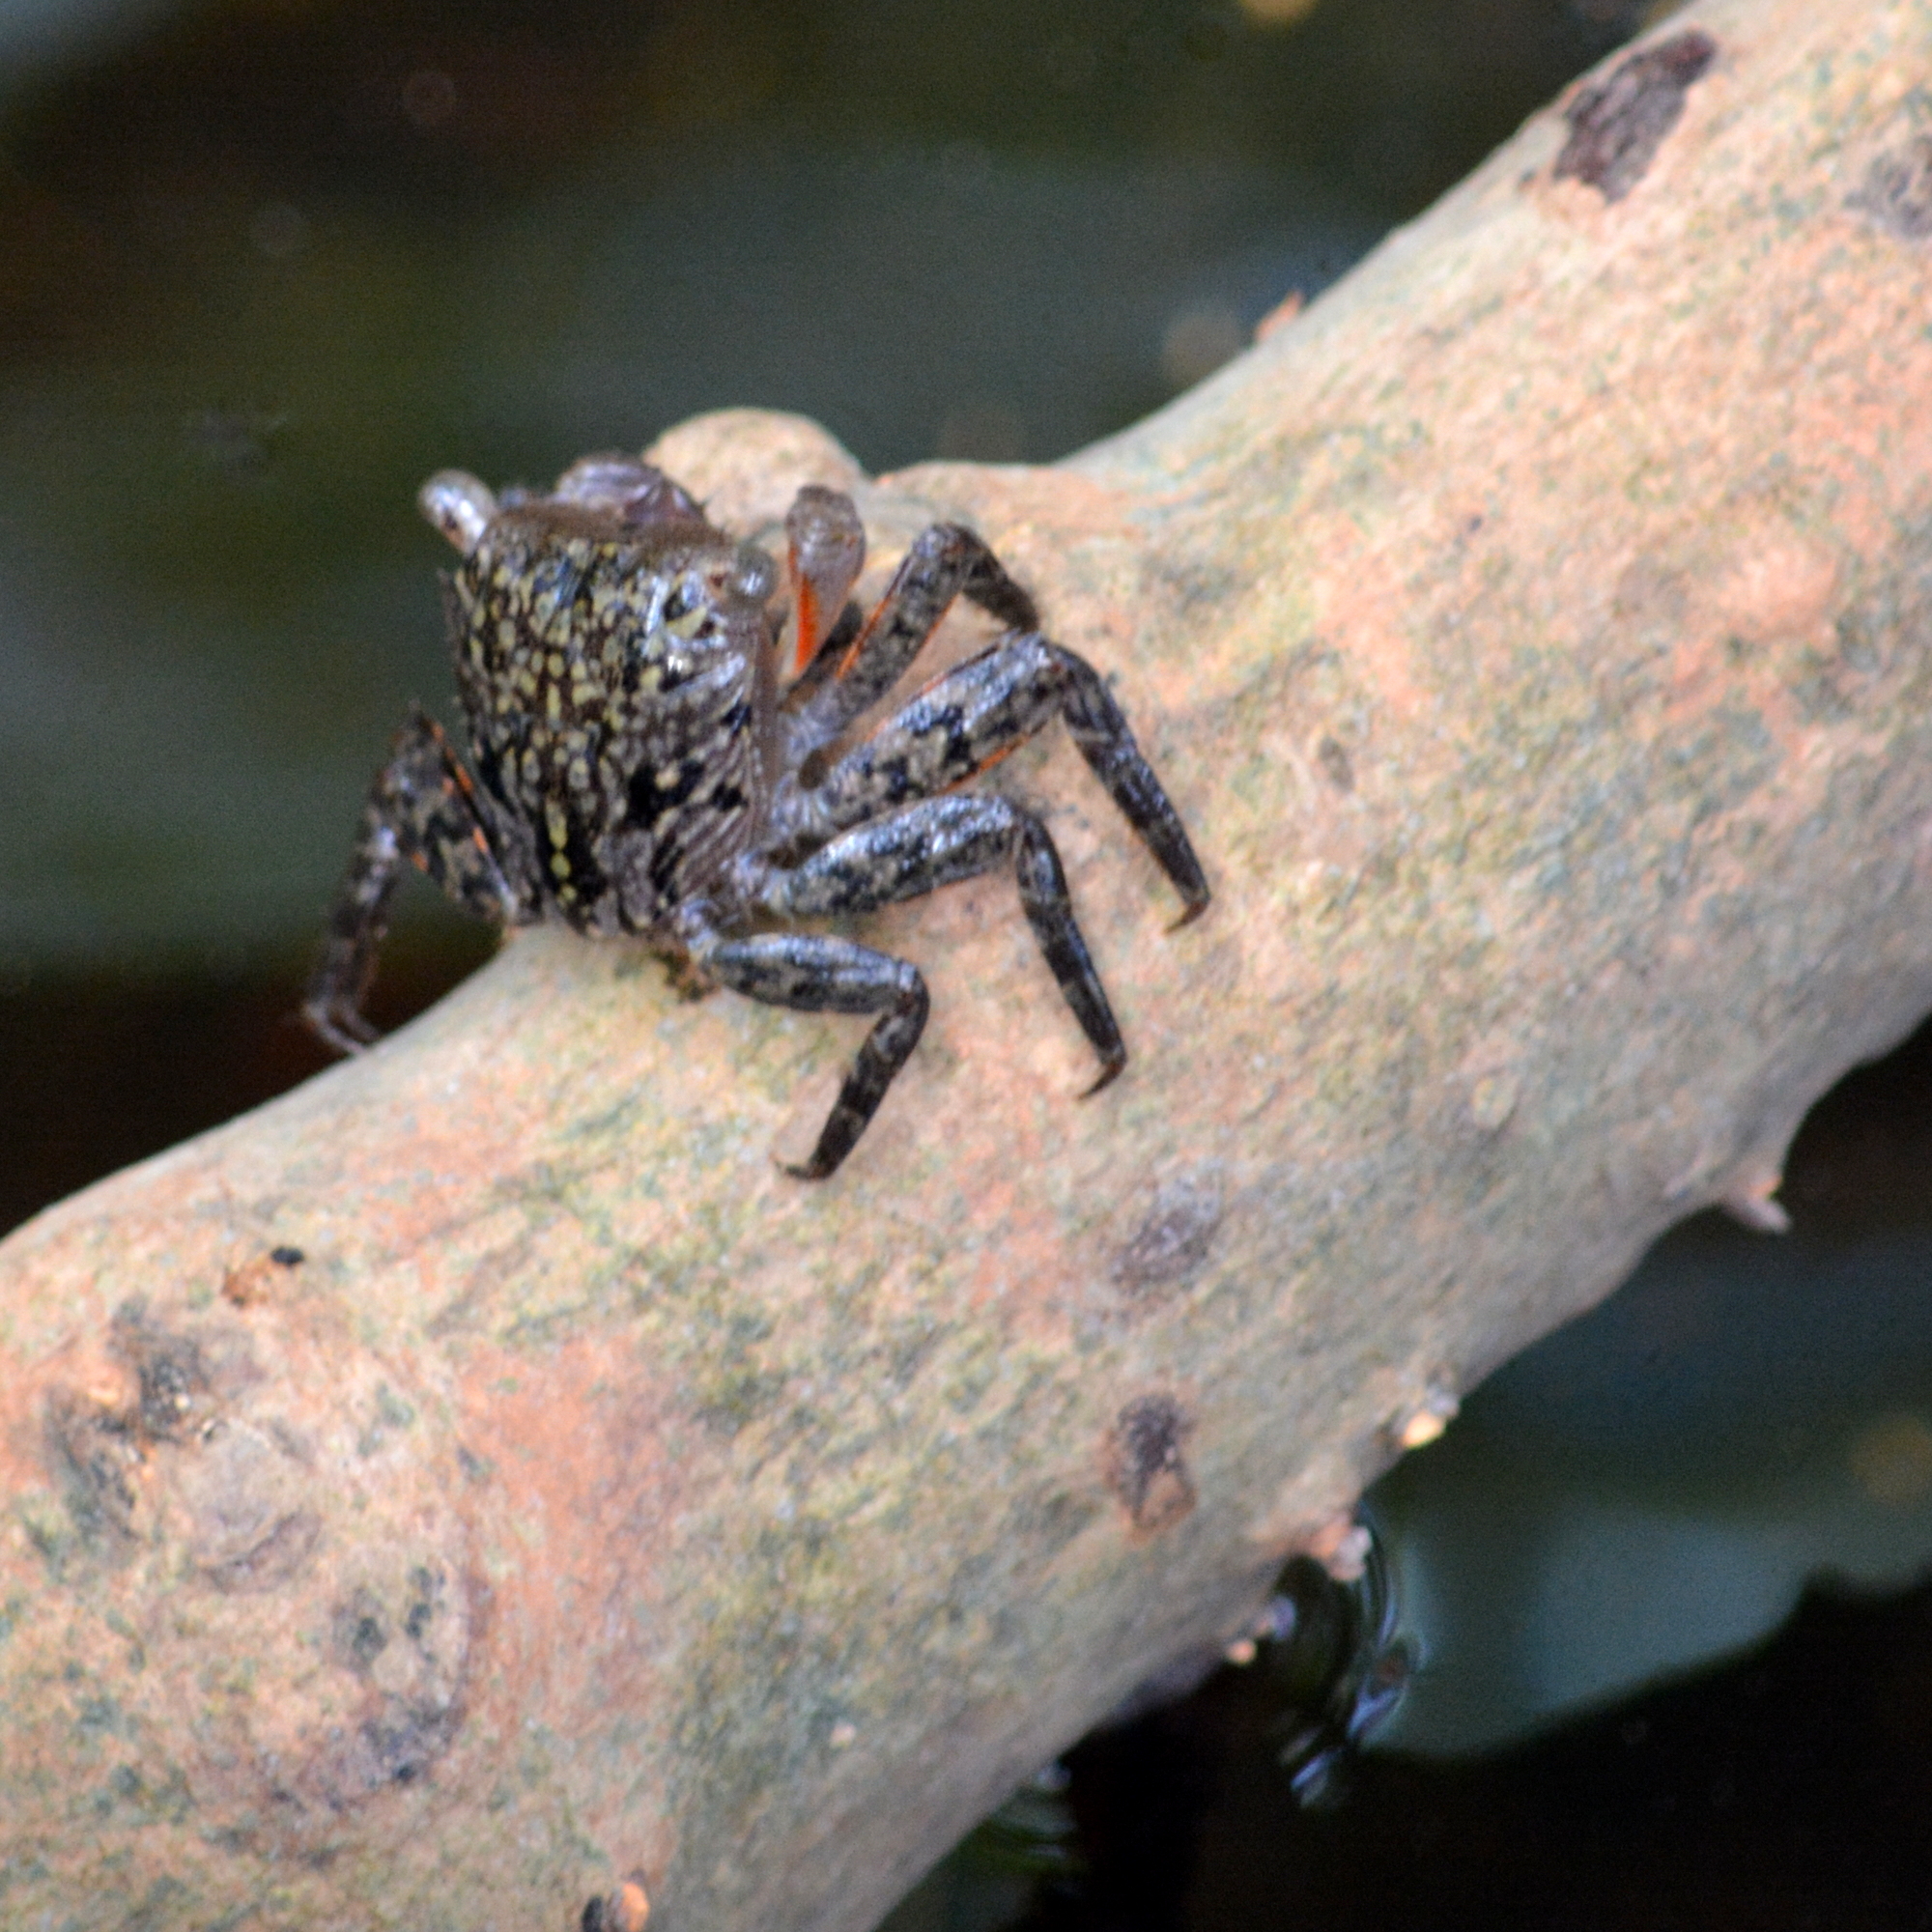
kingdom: Animalia
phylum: Arthropoda
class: Malacostraca
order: Decapoda
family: Sesarmidae
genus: Aratus
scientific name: Aratus pisonii
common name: Mangrove crab
